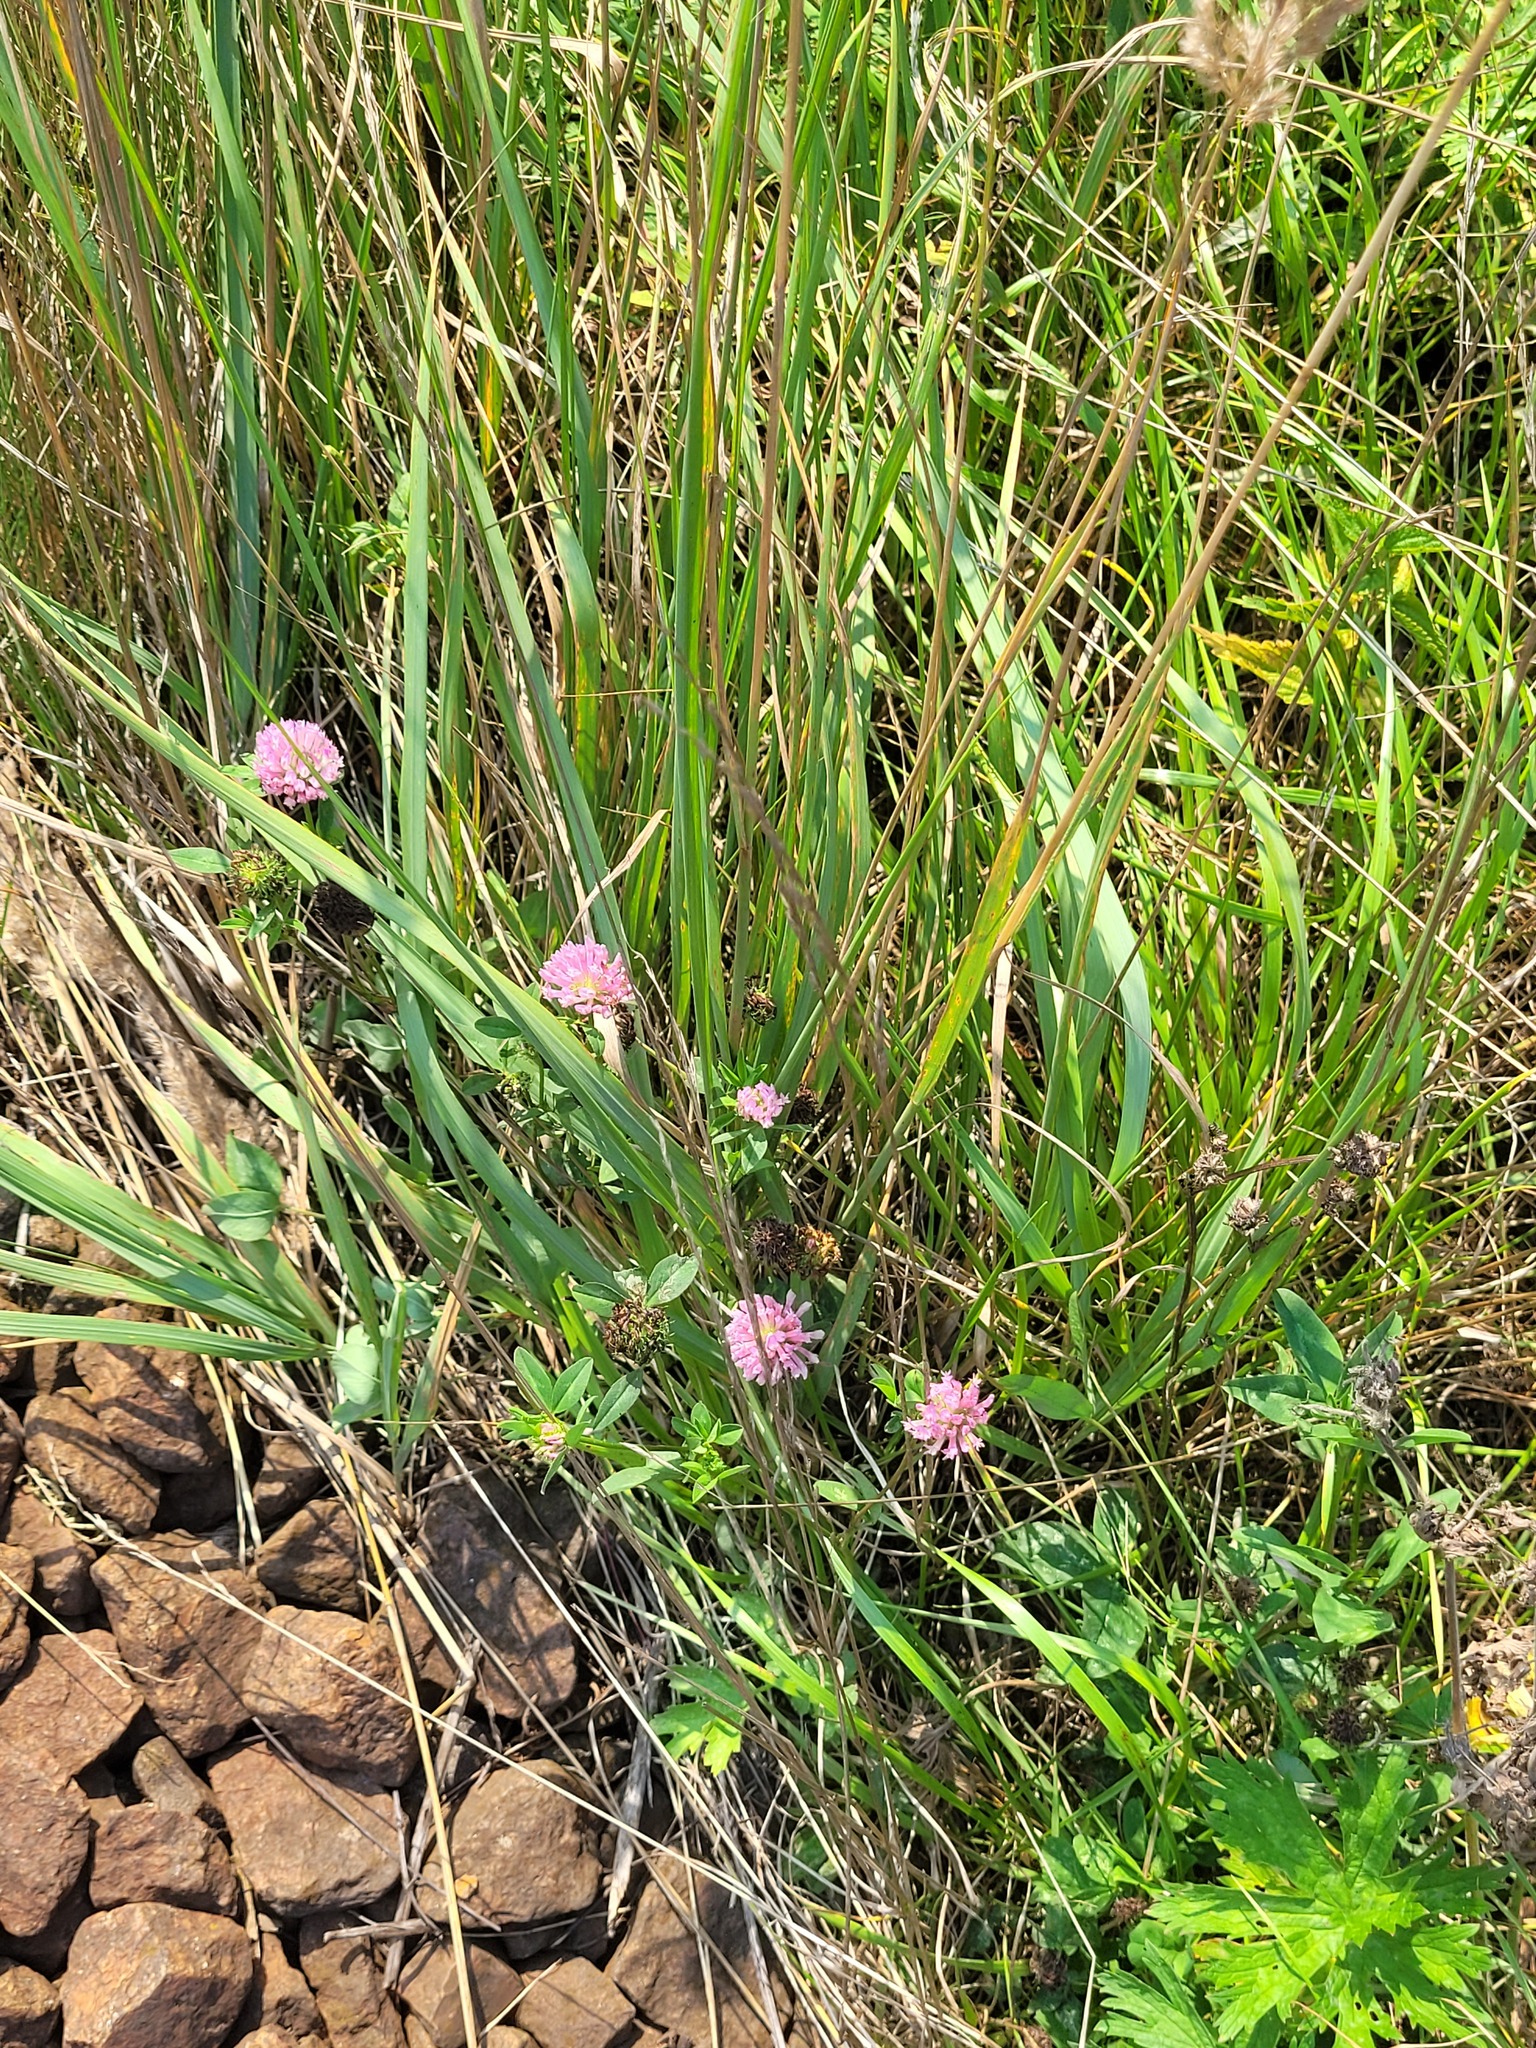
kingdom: Plantae
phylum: Tracheophyta
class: Magnoliopsida
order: Fabales
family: Fabaceae
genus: Trifolium
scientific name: Trifolium pratense
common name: Red clover
